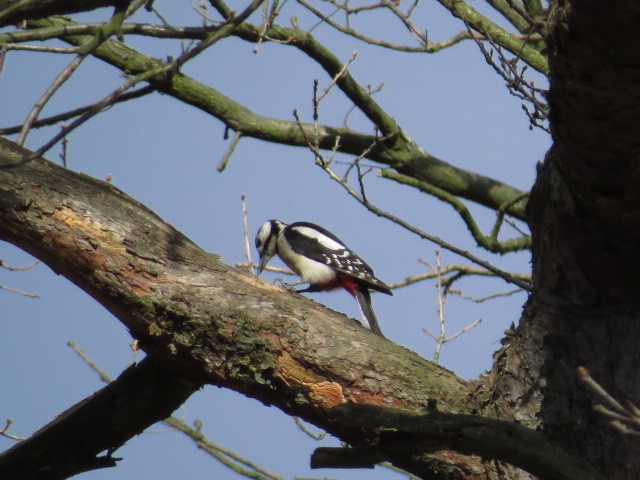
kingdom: Animalia
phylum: Chordata
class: Aves
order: Piciformes
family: Picidae
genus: Dendrocopos
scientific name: Dendrocopos major
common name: Great spotted woodpecker
